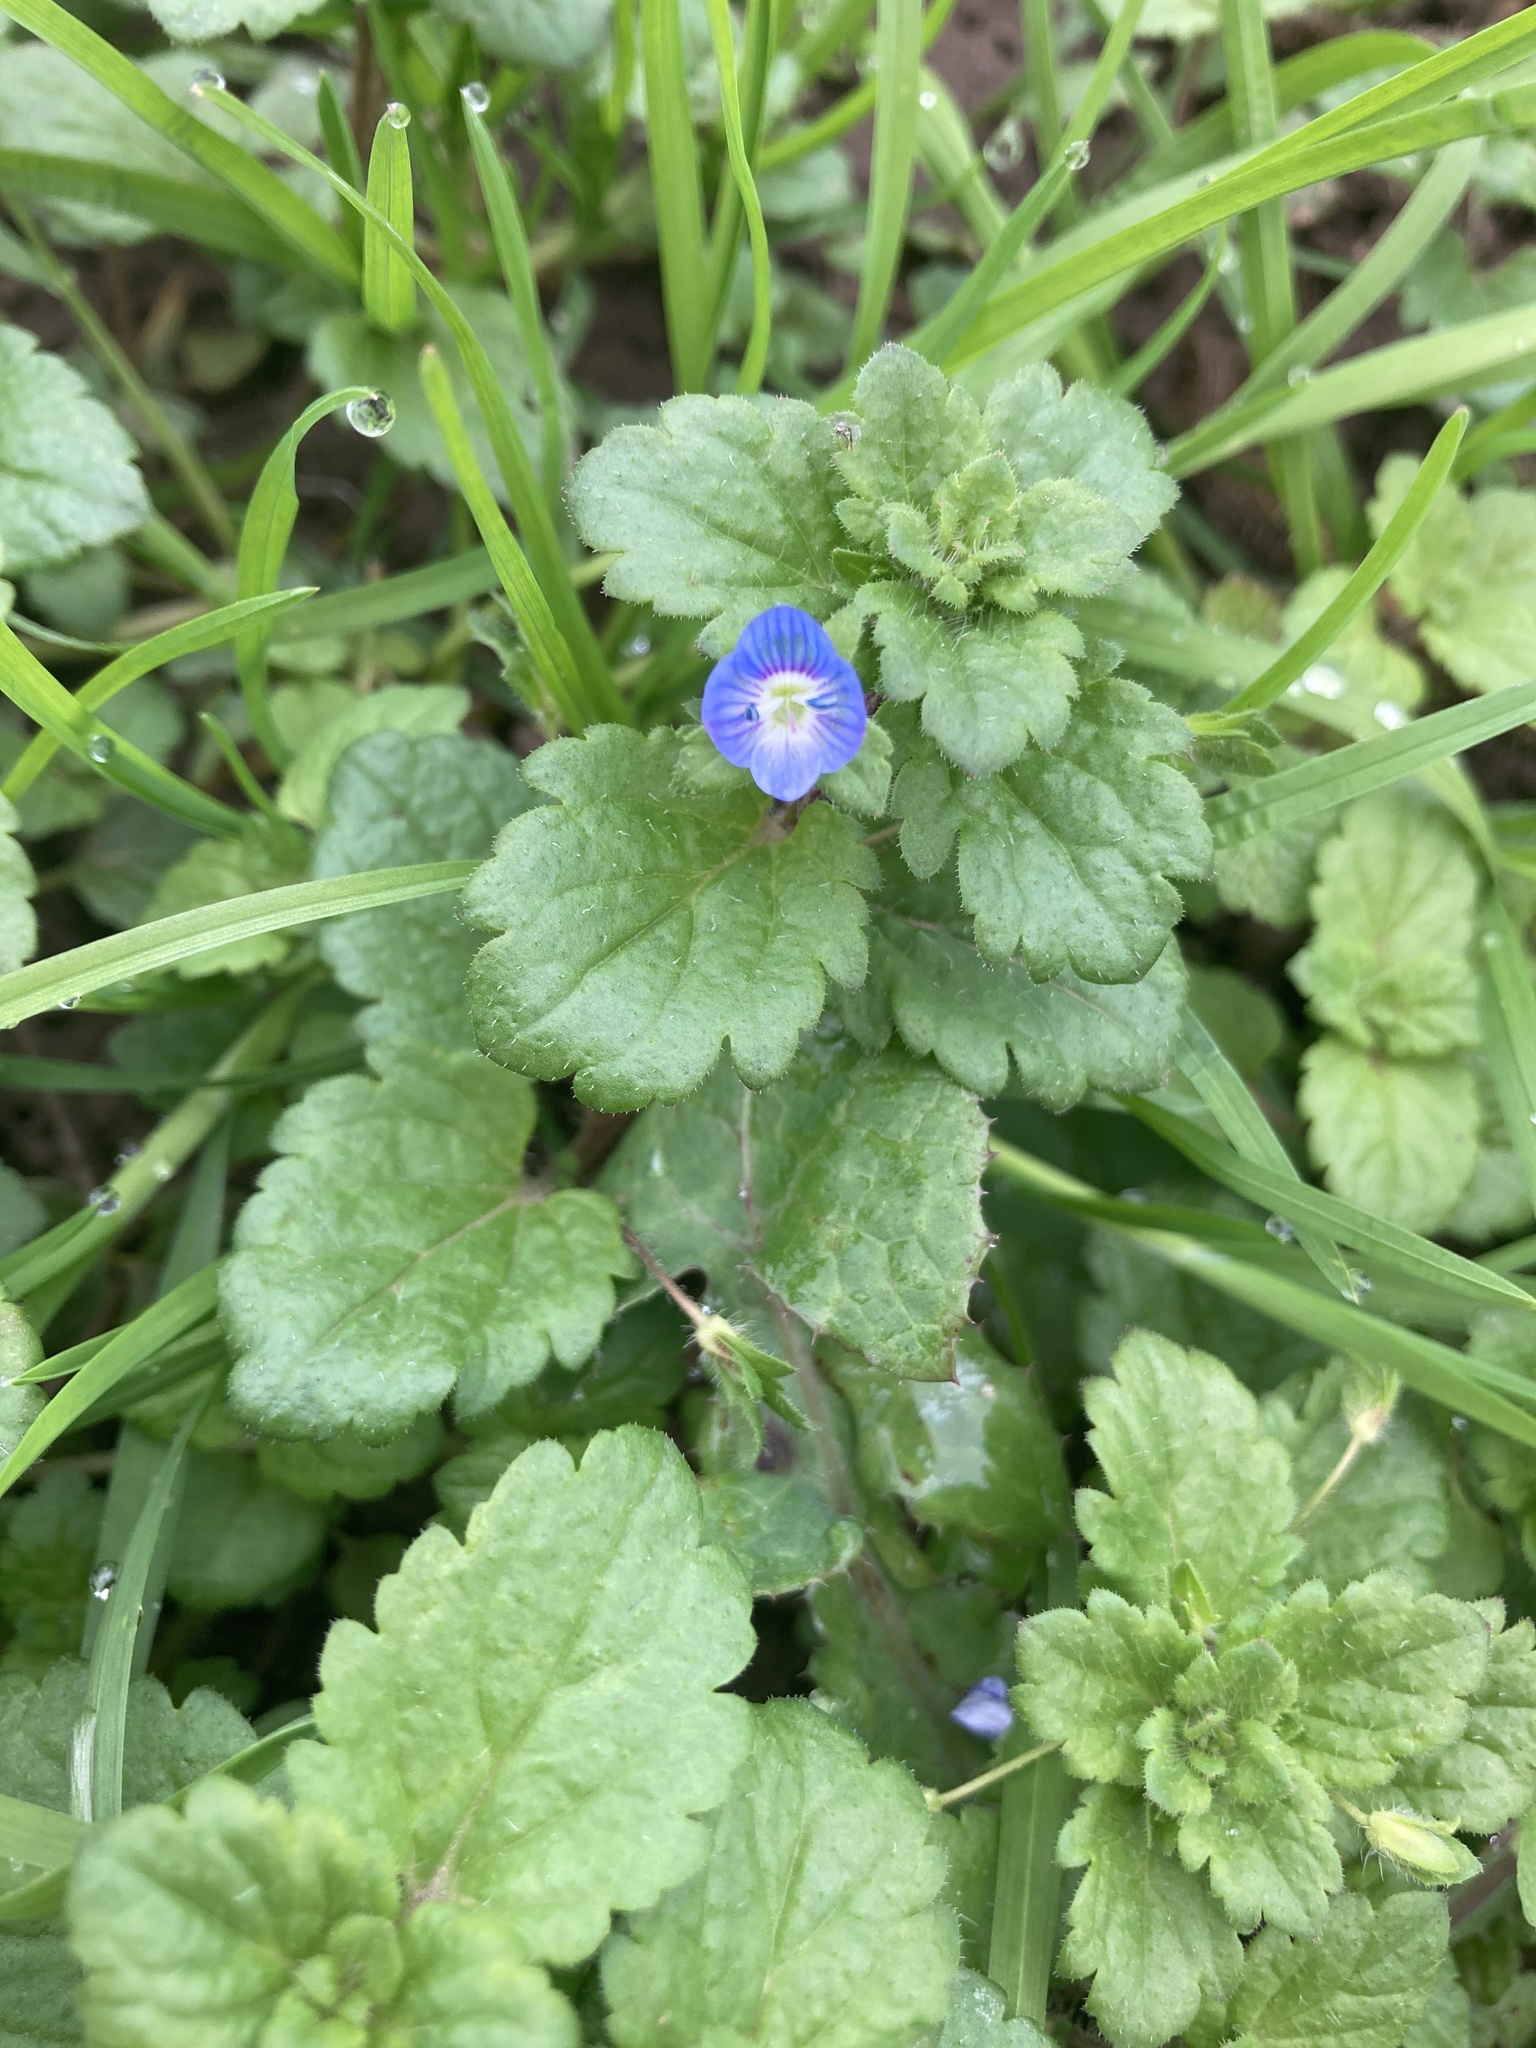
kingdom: Plantae
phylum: Tracheophyta
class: Magnoliopsida
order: Lamiales
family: Plantaginaceae
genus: Veronica
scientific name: Veronica persica
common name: Common field-speedwell
